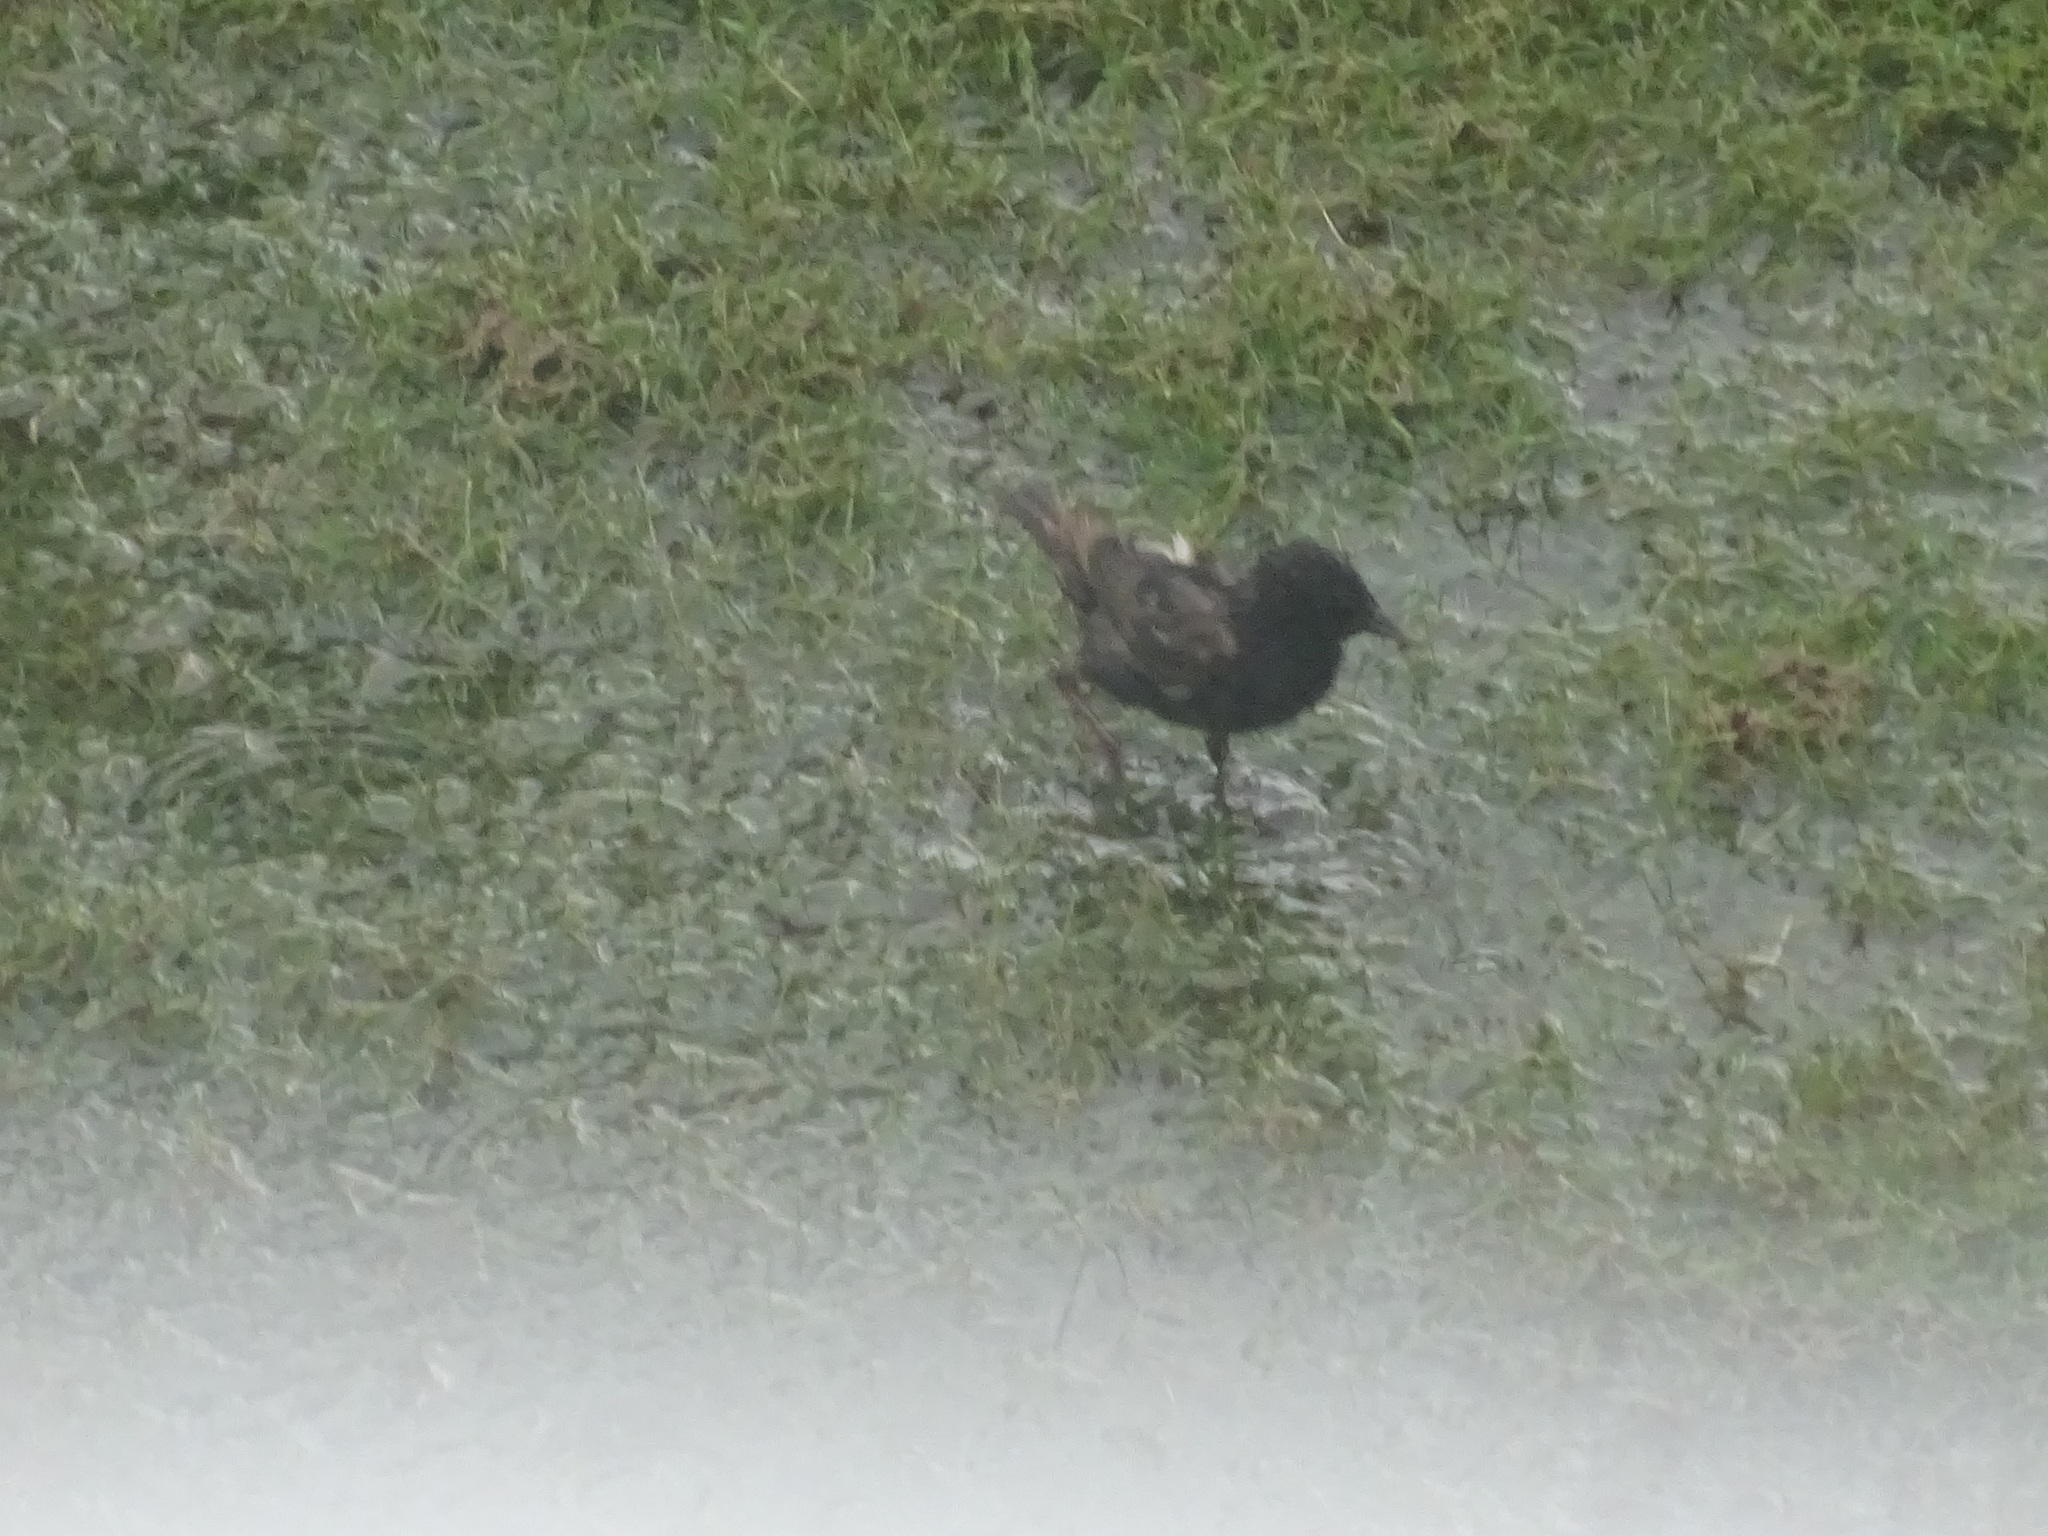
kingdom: Animalia
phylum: Chordata
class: Aves
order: Passeriformes
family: Sturnidae
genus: Sturnus
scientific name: Sturnus vulgaris
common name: Common starling
